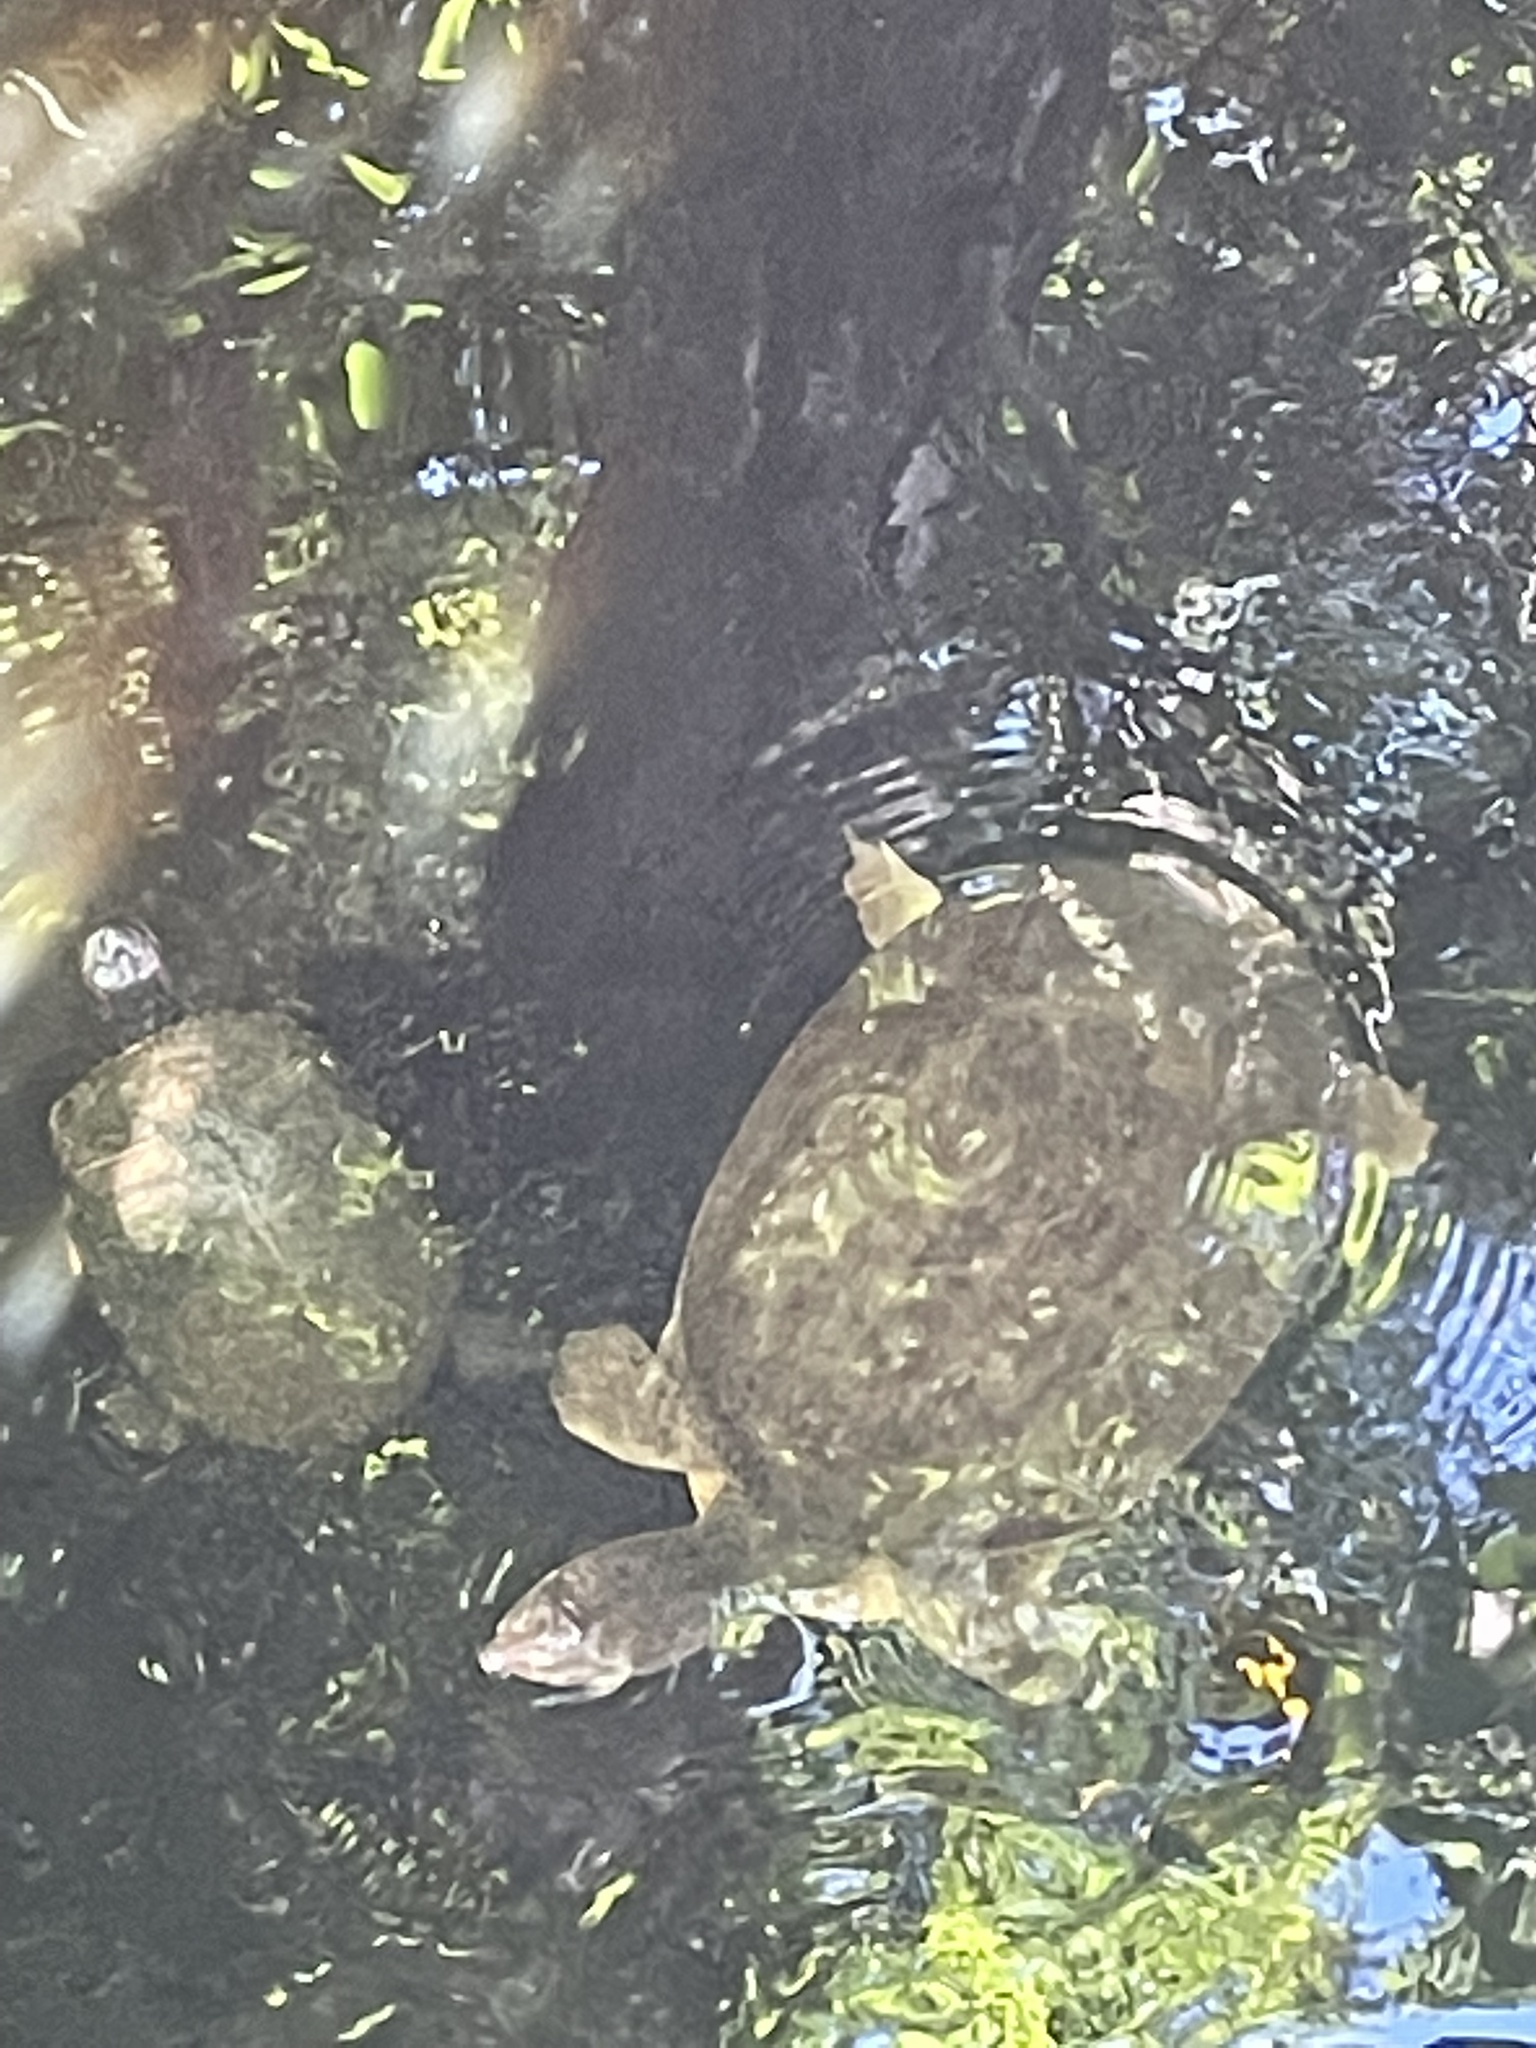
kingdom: Animalia
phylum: Chordata
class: Testudines
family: Trionychidae
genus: Apalone
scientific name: Apalone ferox
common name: Florida softshell turtle
